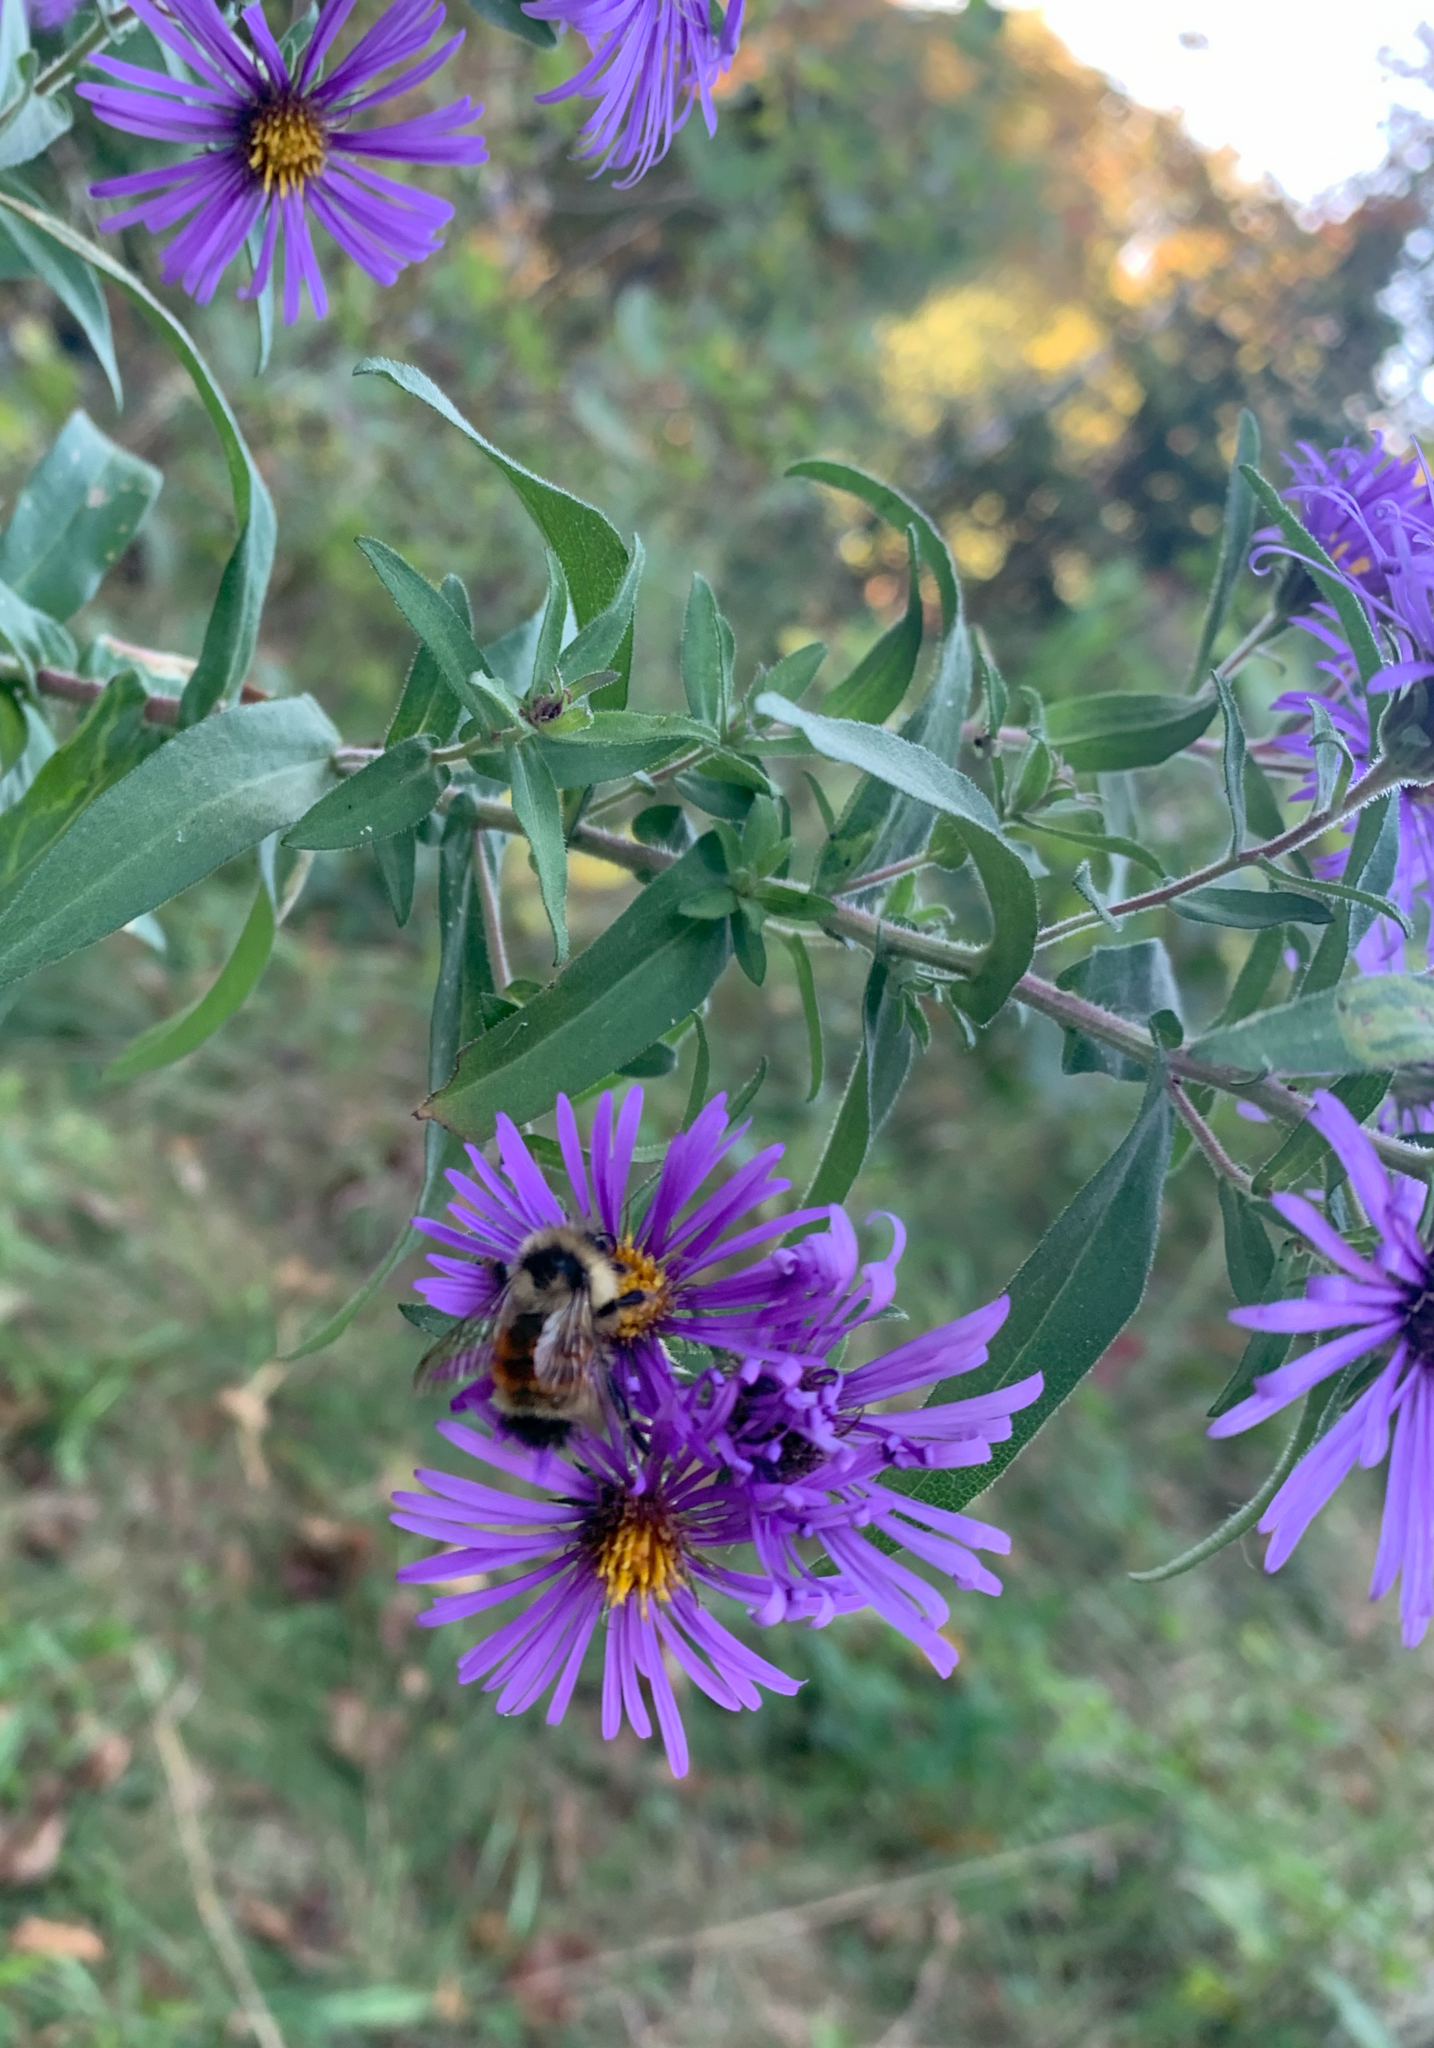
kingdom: Animalia
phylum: Arthropoda
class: Insecta
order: Hymenoptera
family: Apidae
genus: Bombus
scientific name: Bombus ternarius
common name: Tri-colored bumble bee
